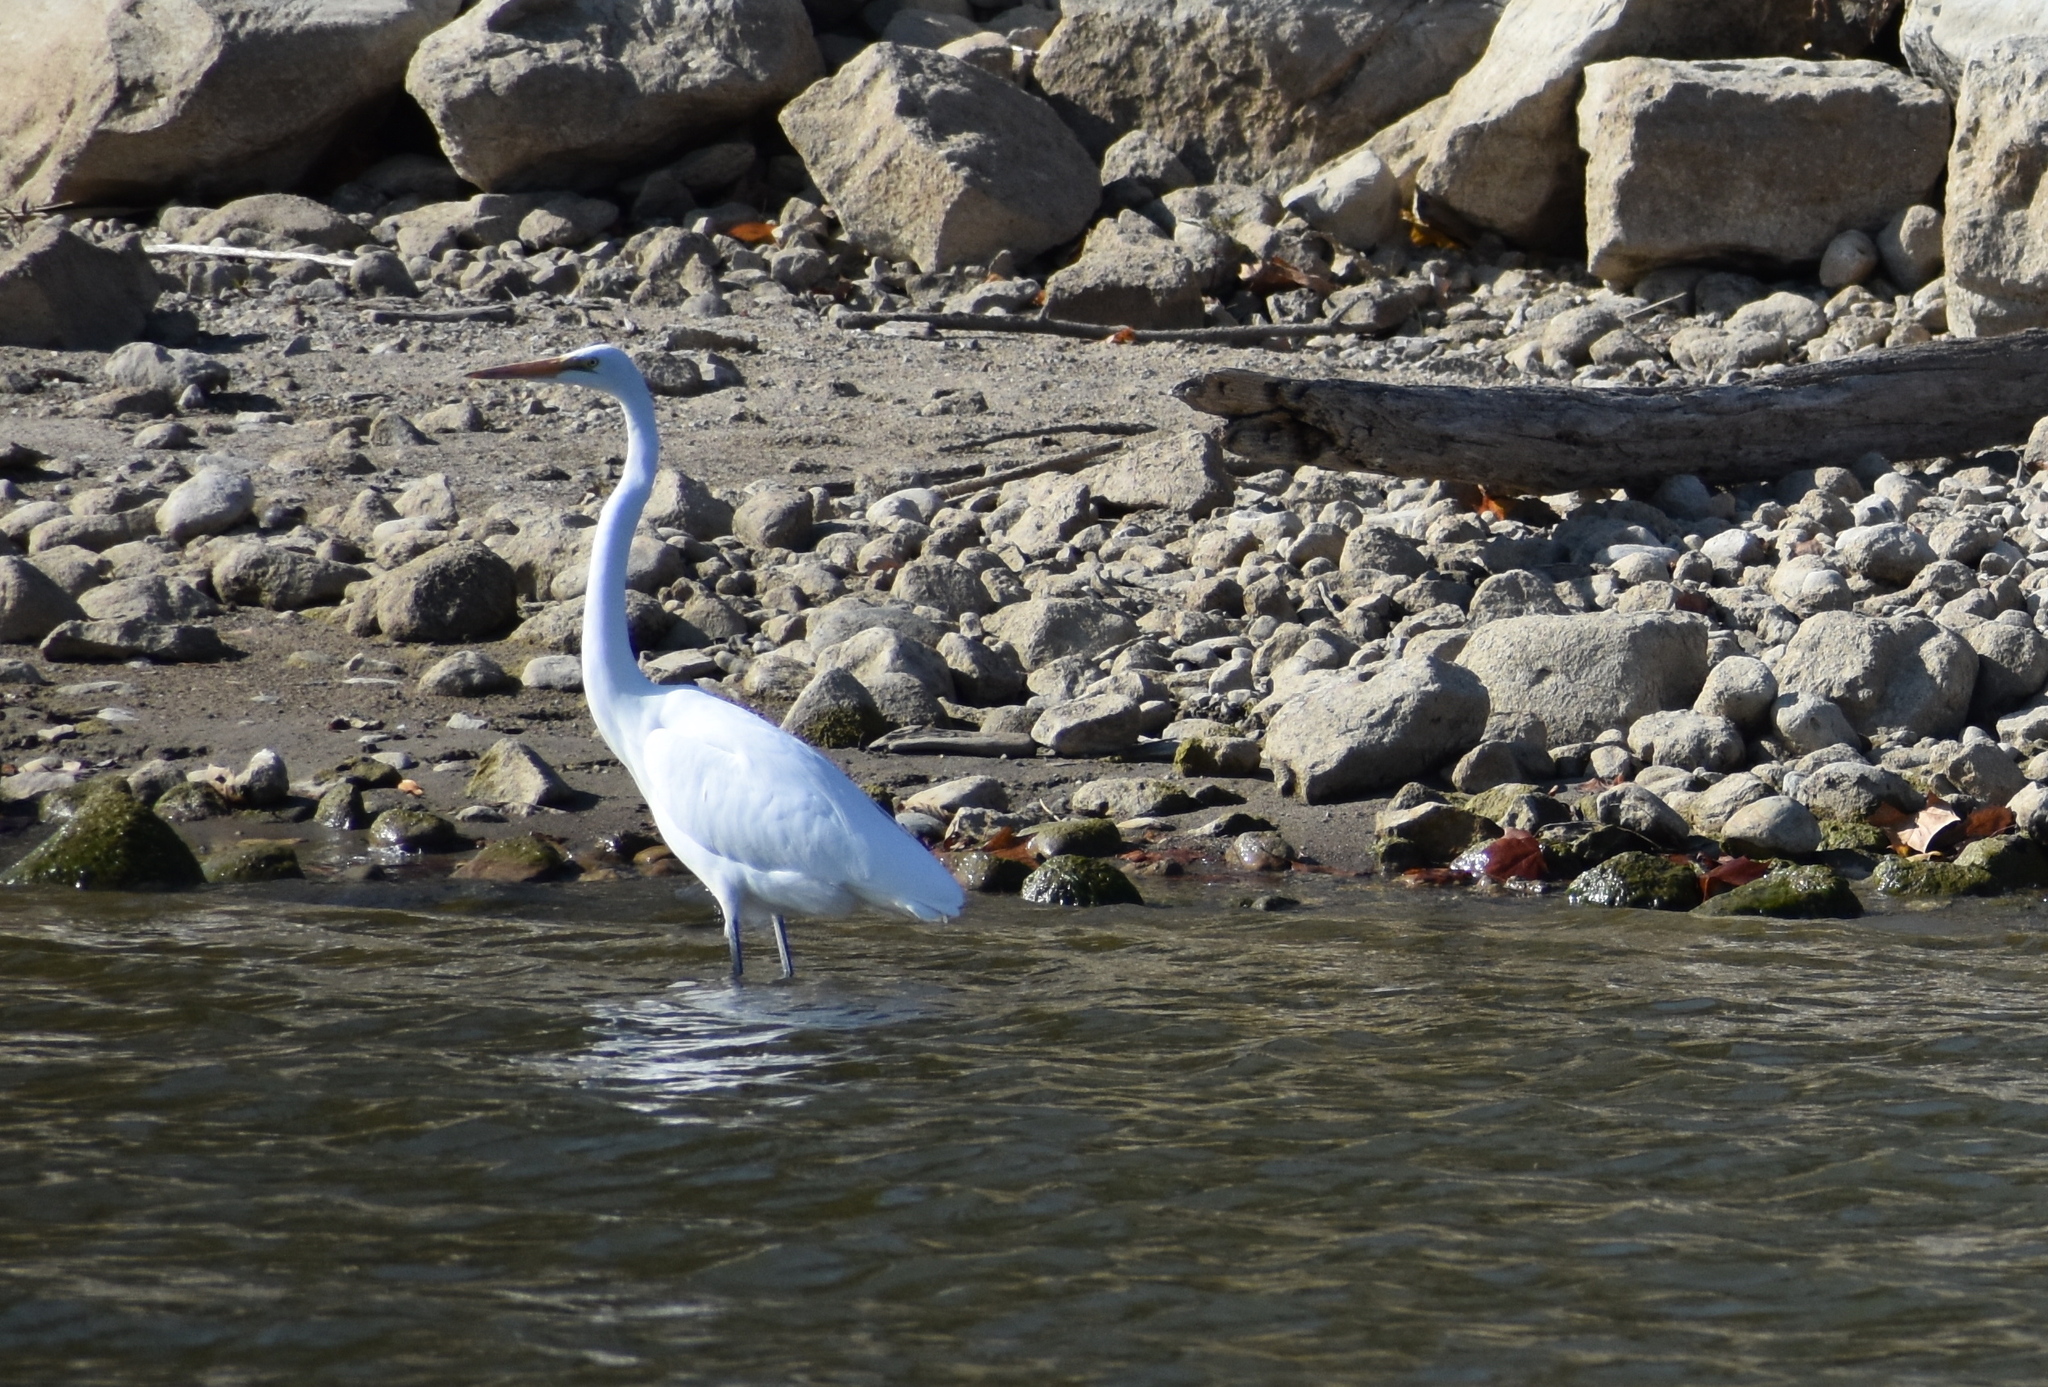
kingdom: Animalia
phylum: Chordata
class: Aves
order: Pelecaniformes
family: Ardeidae
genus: Ardea
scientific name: Ardea alba
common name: Great egret
